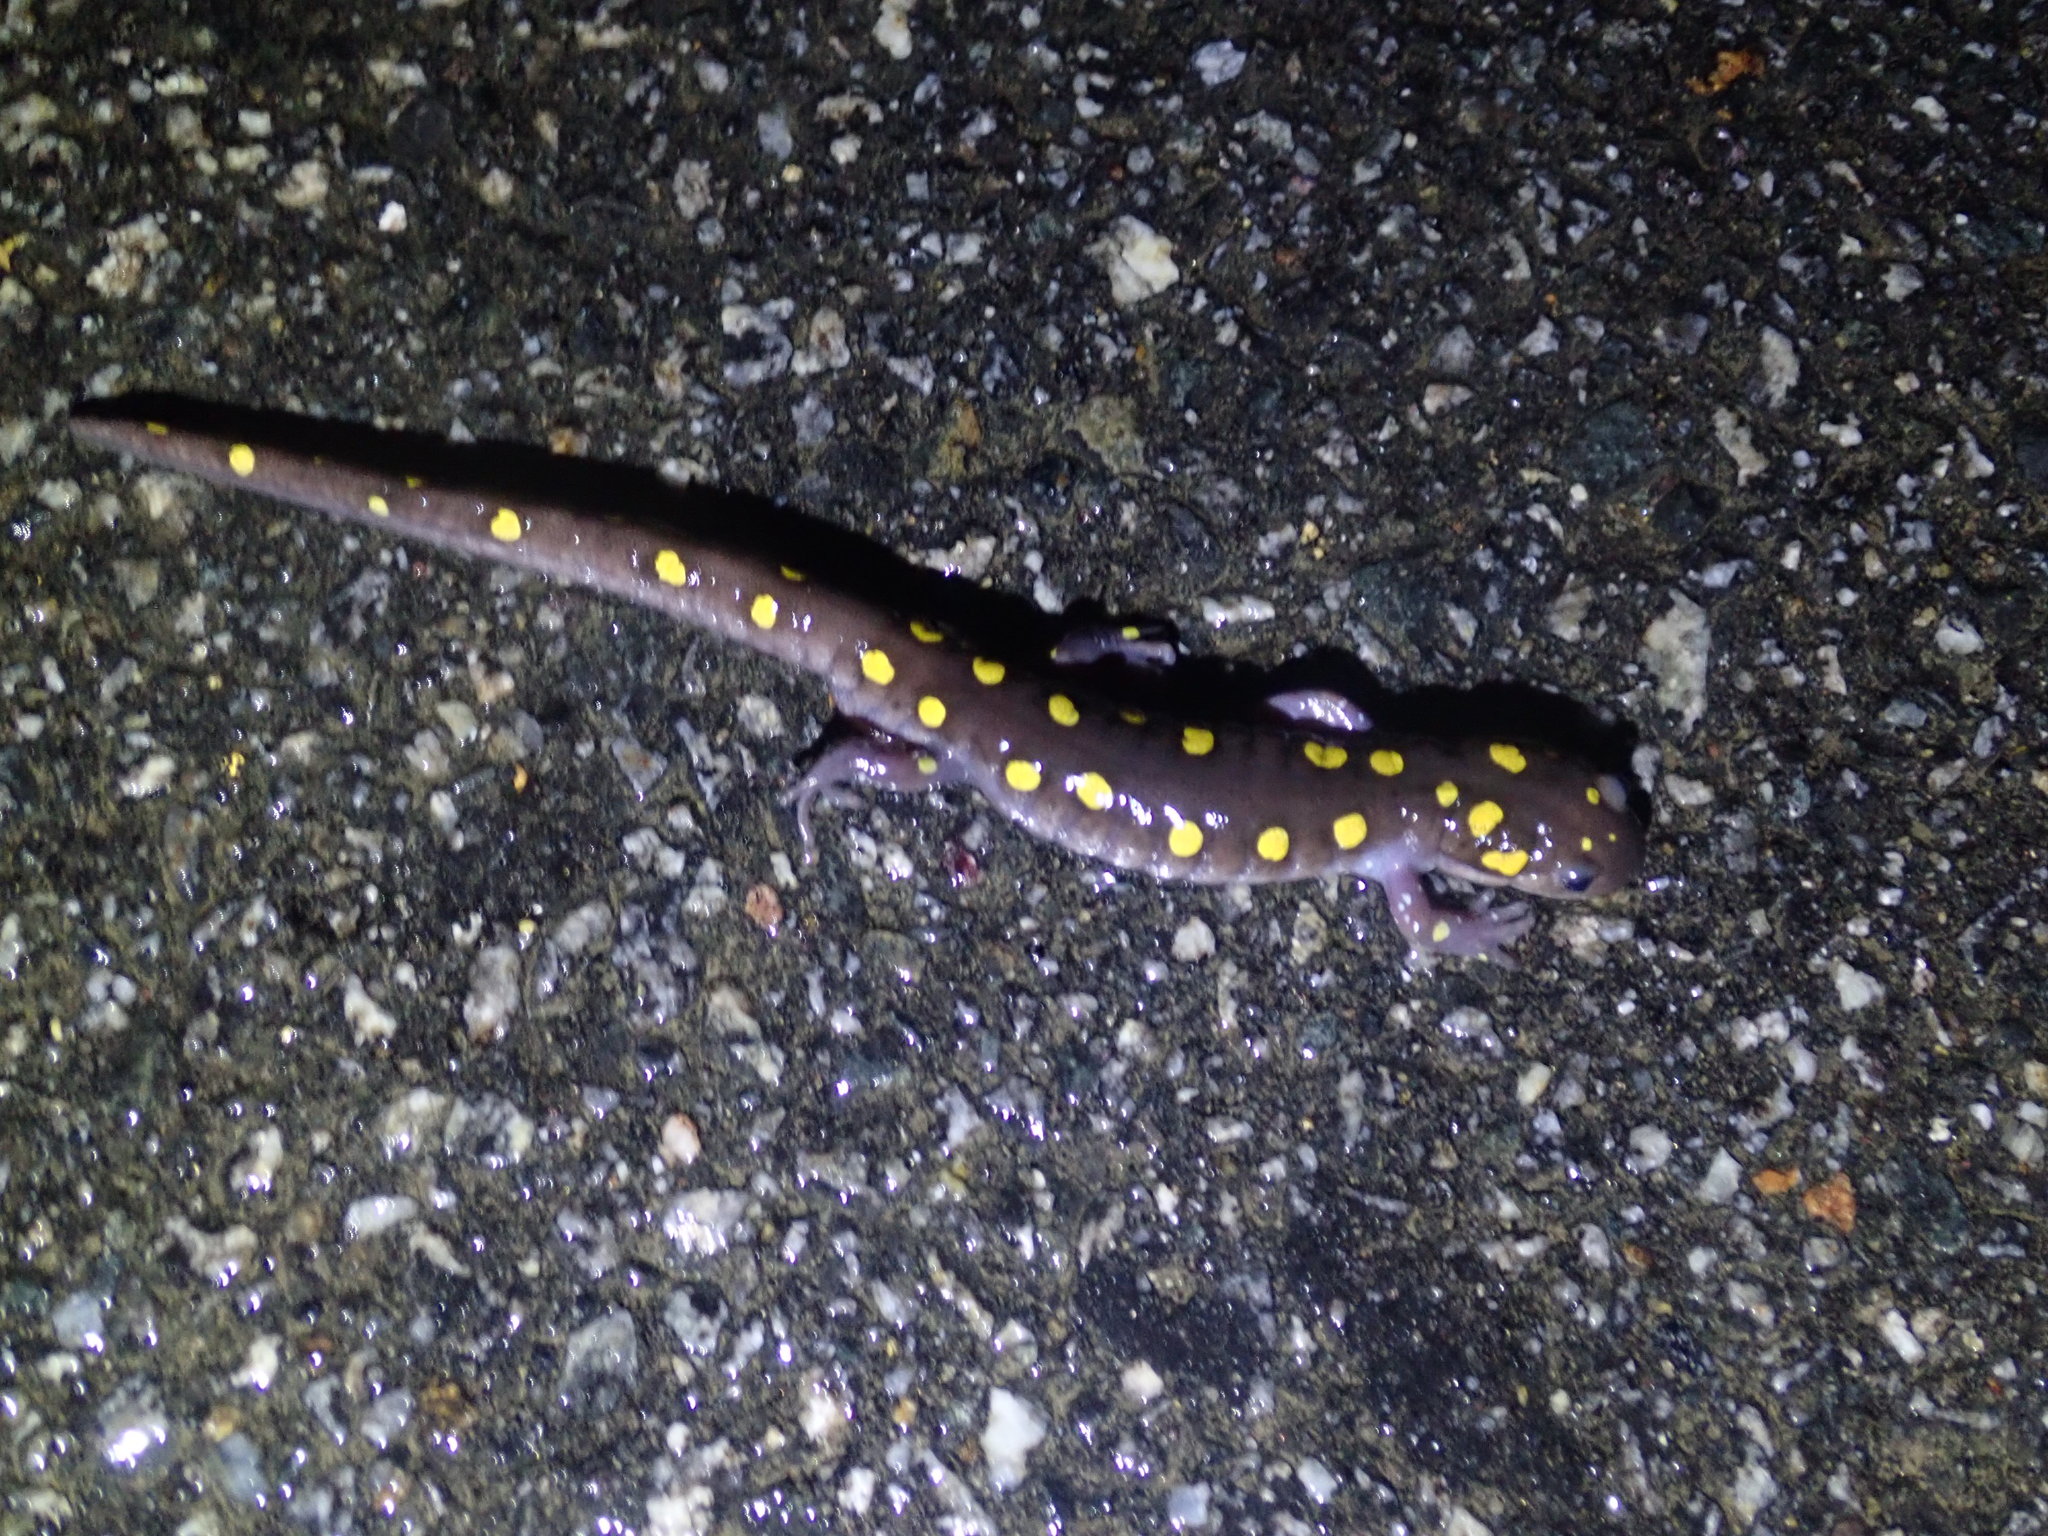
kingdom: Animalia
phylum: Chordata
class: Amphibia
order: Caudata
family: Ambystomatidae
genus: Ambystoma
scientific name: Ambystoma maculatum
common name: Spotted salamander
